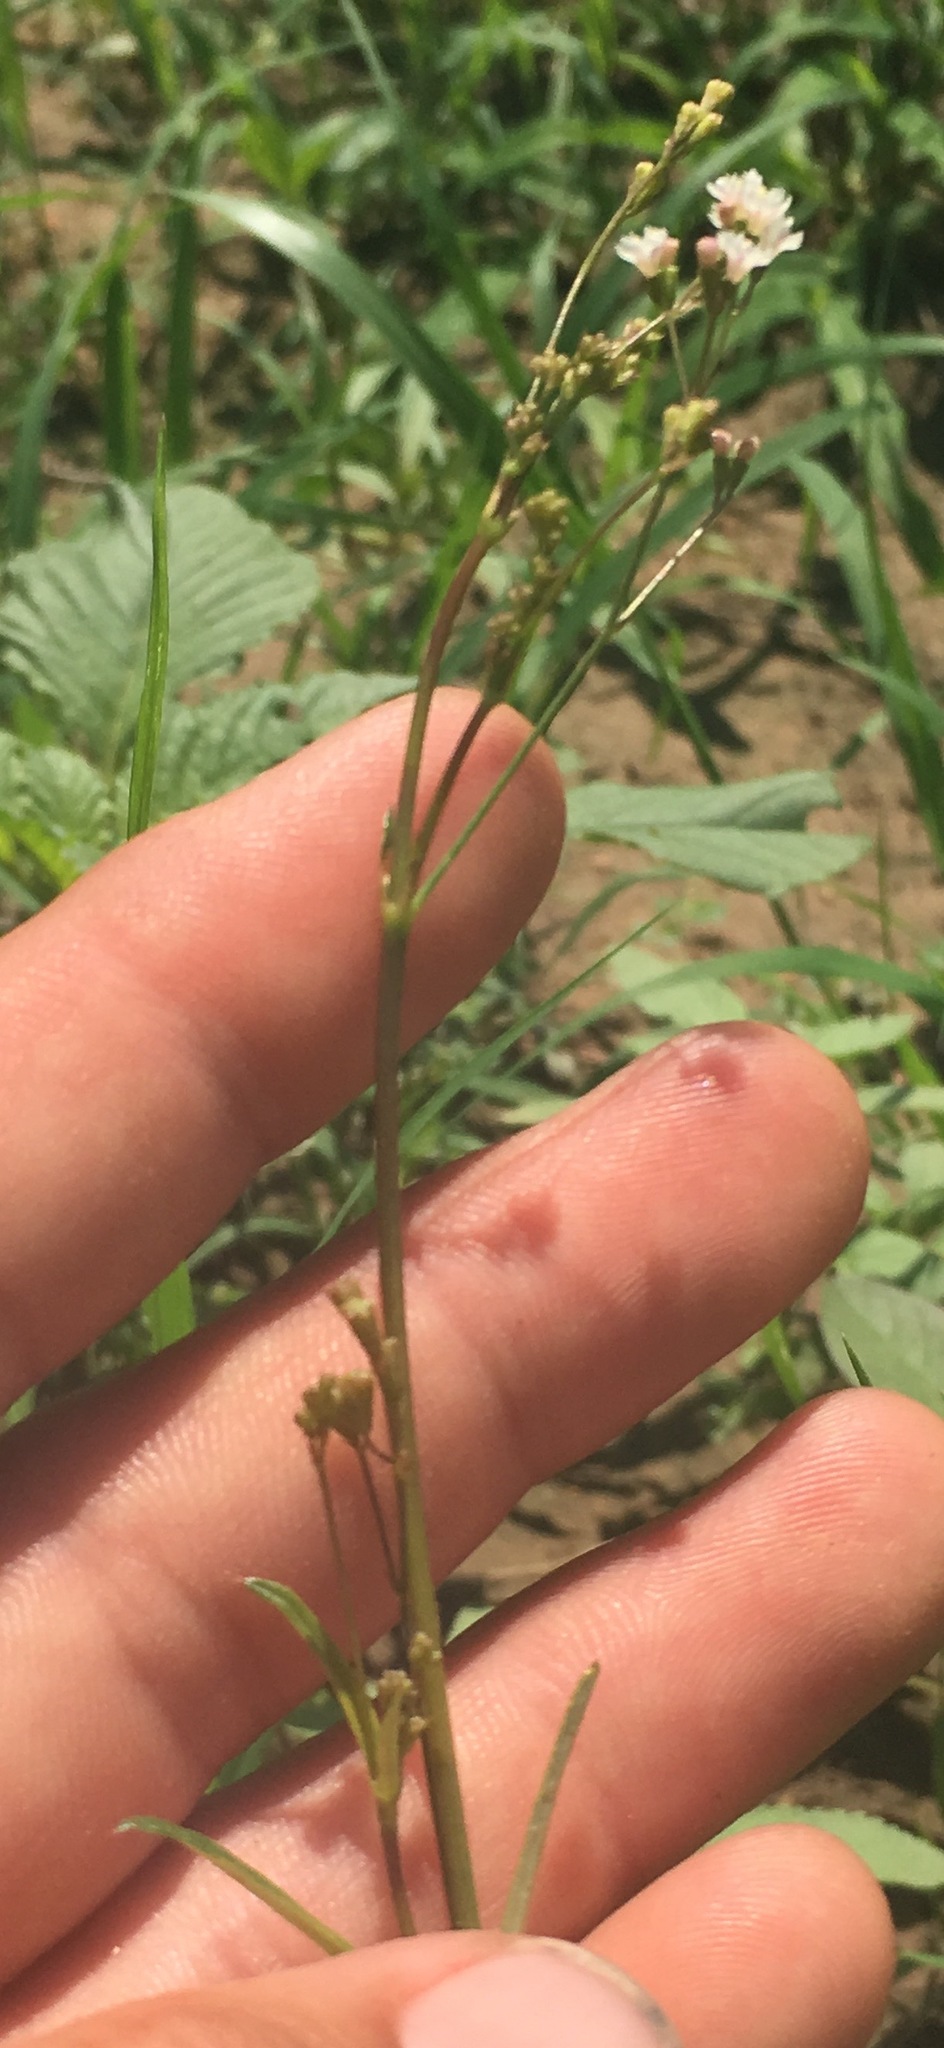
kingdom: Plantae
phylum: Tracheophyta
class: Magnoliopsida
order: Caryophyllales
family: Nyctaginaceae
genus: Boerhavia
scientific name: Boerhavia erecta
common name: Erect spiderling
